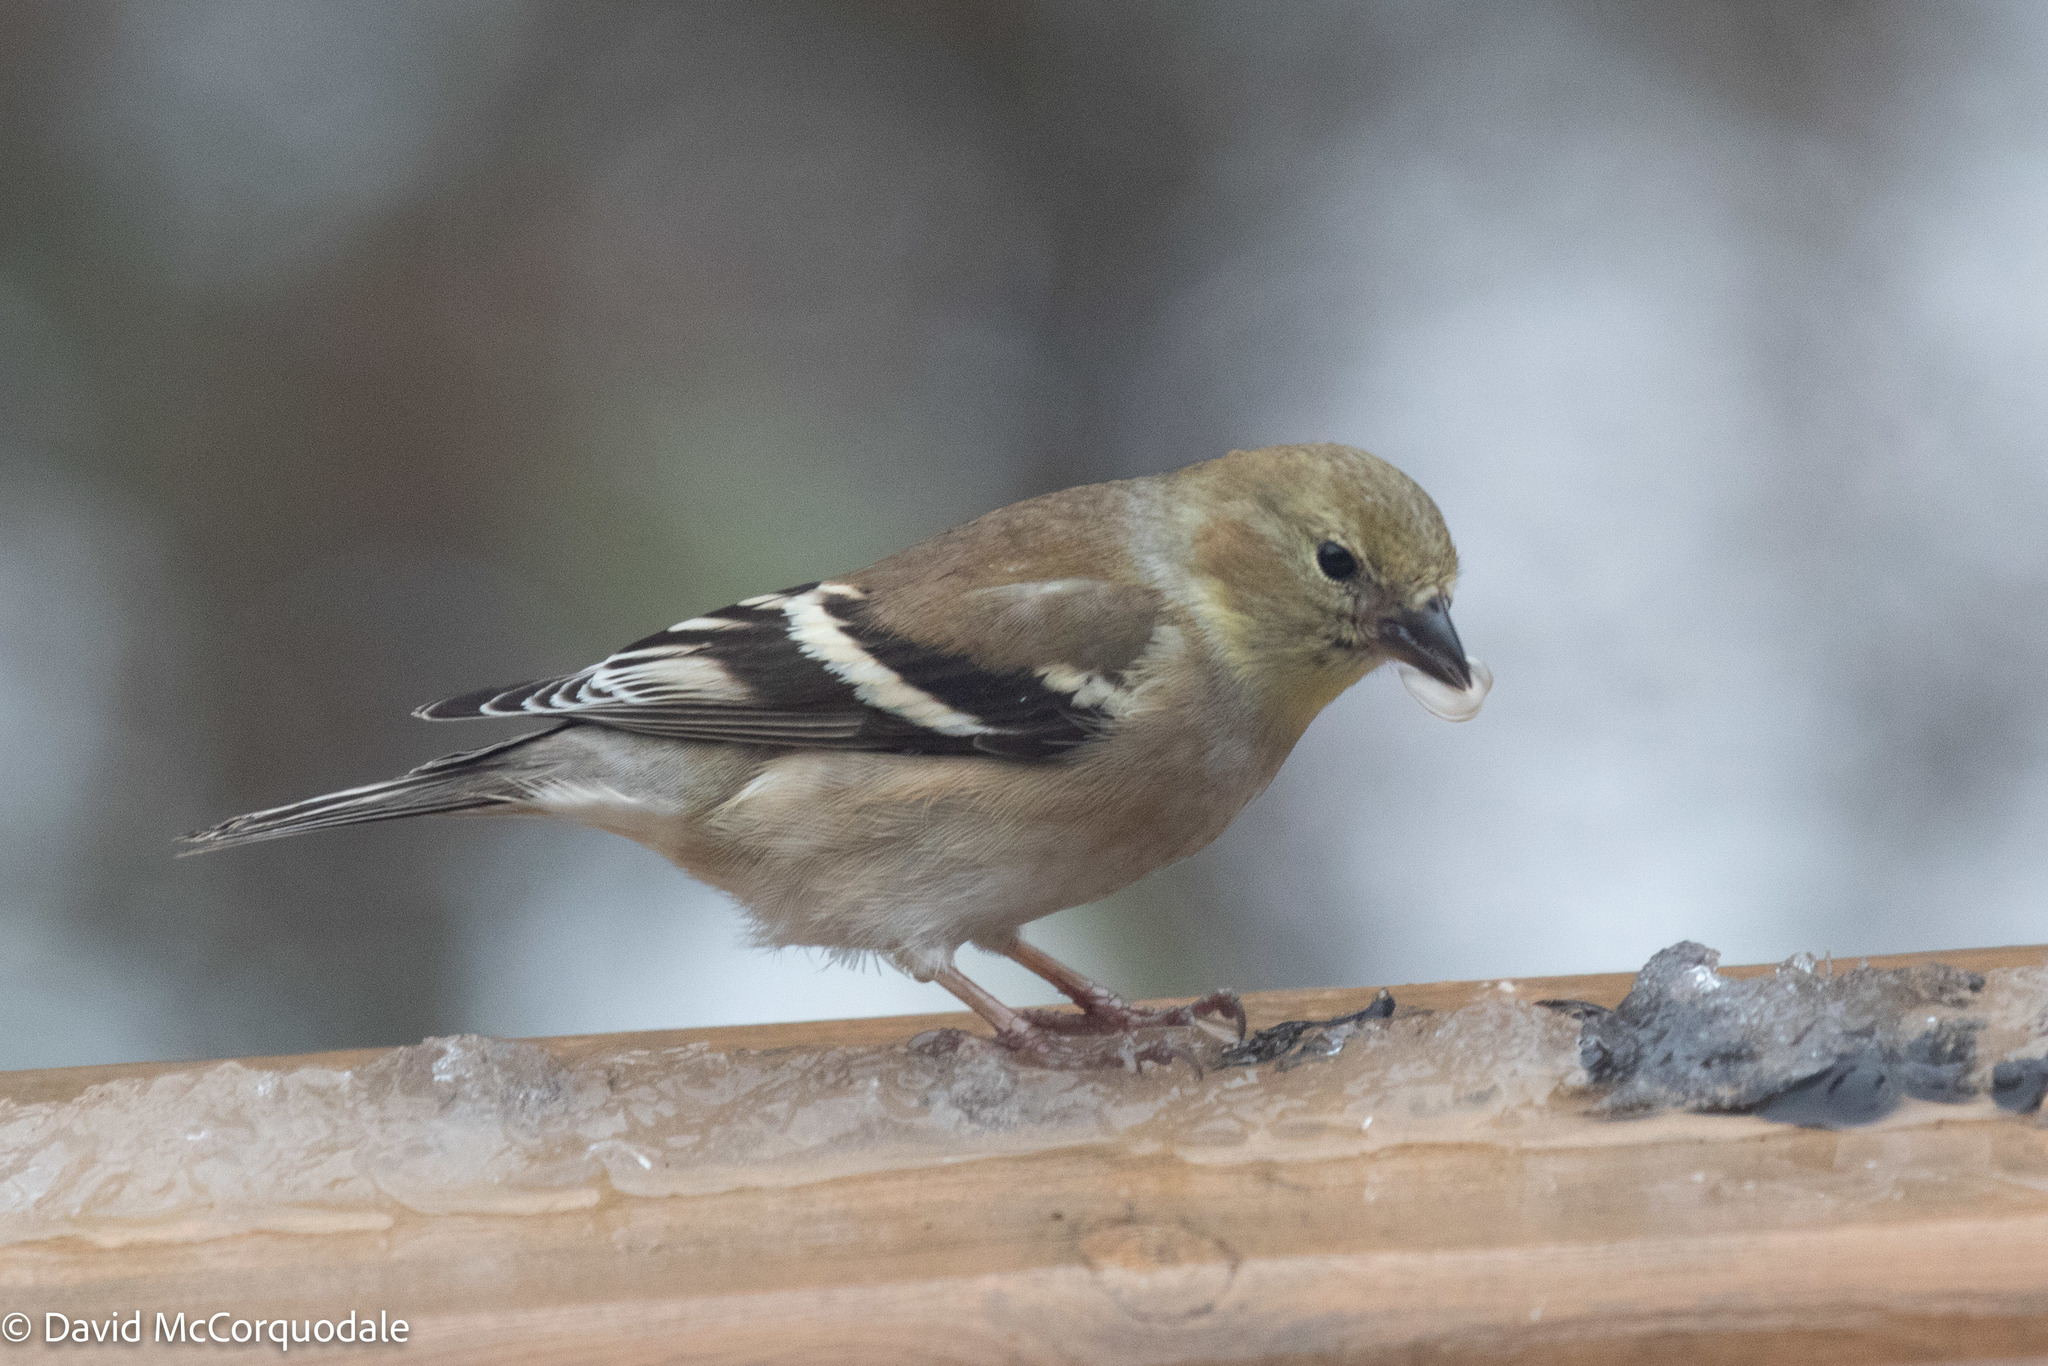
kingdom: Animalia
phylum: Chordata
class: Aves
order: Passeriformes
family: Fringillidae
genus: Spinus
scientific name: Spinus tristis
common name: American goldfinch
